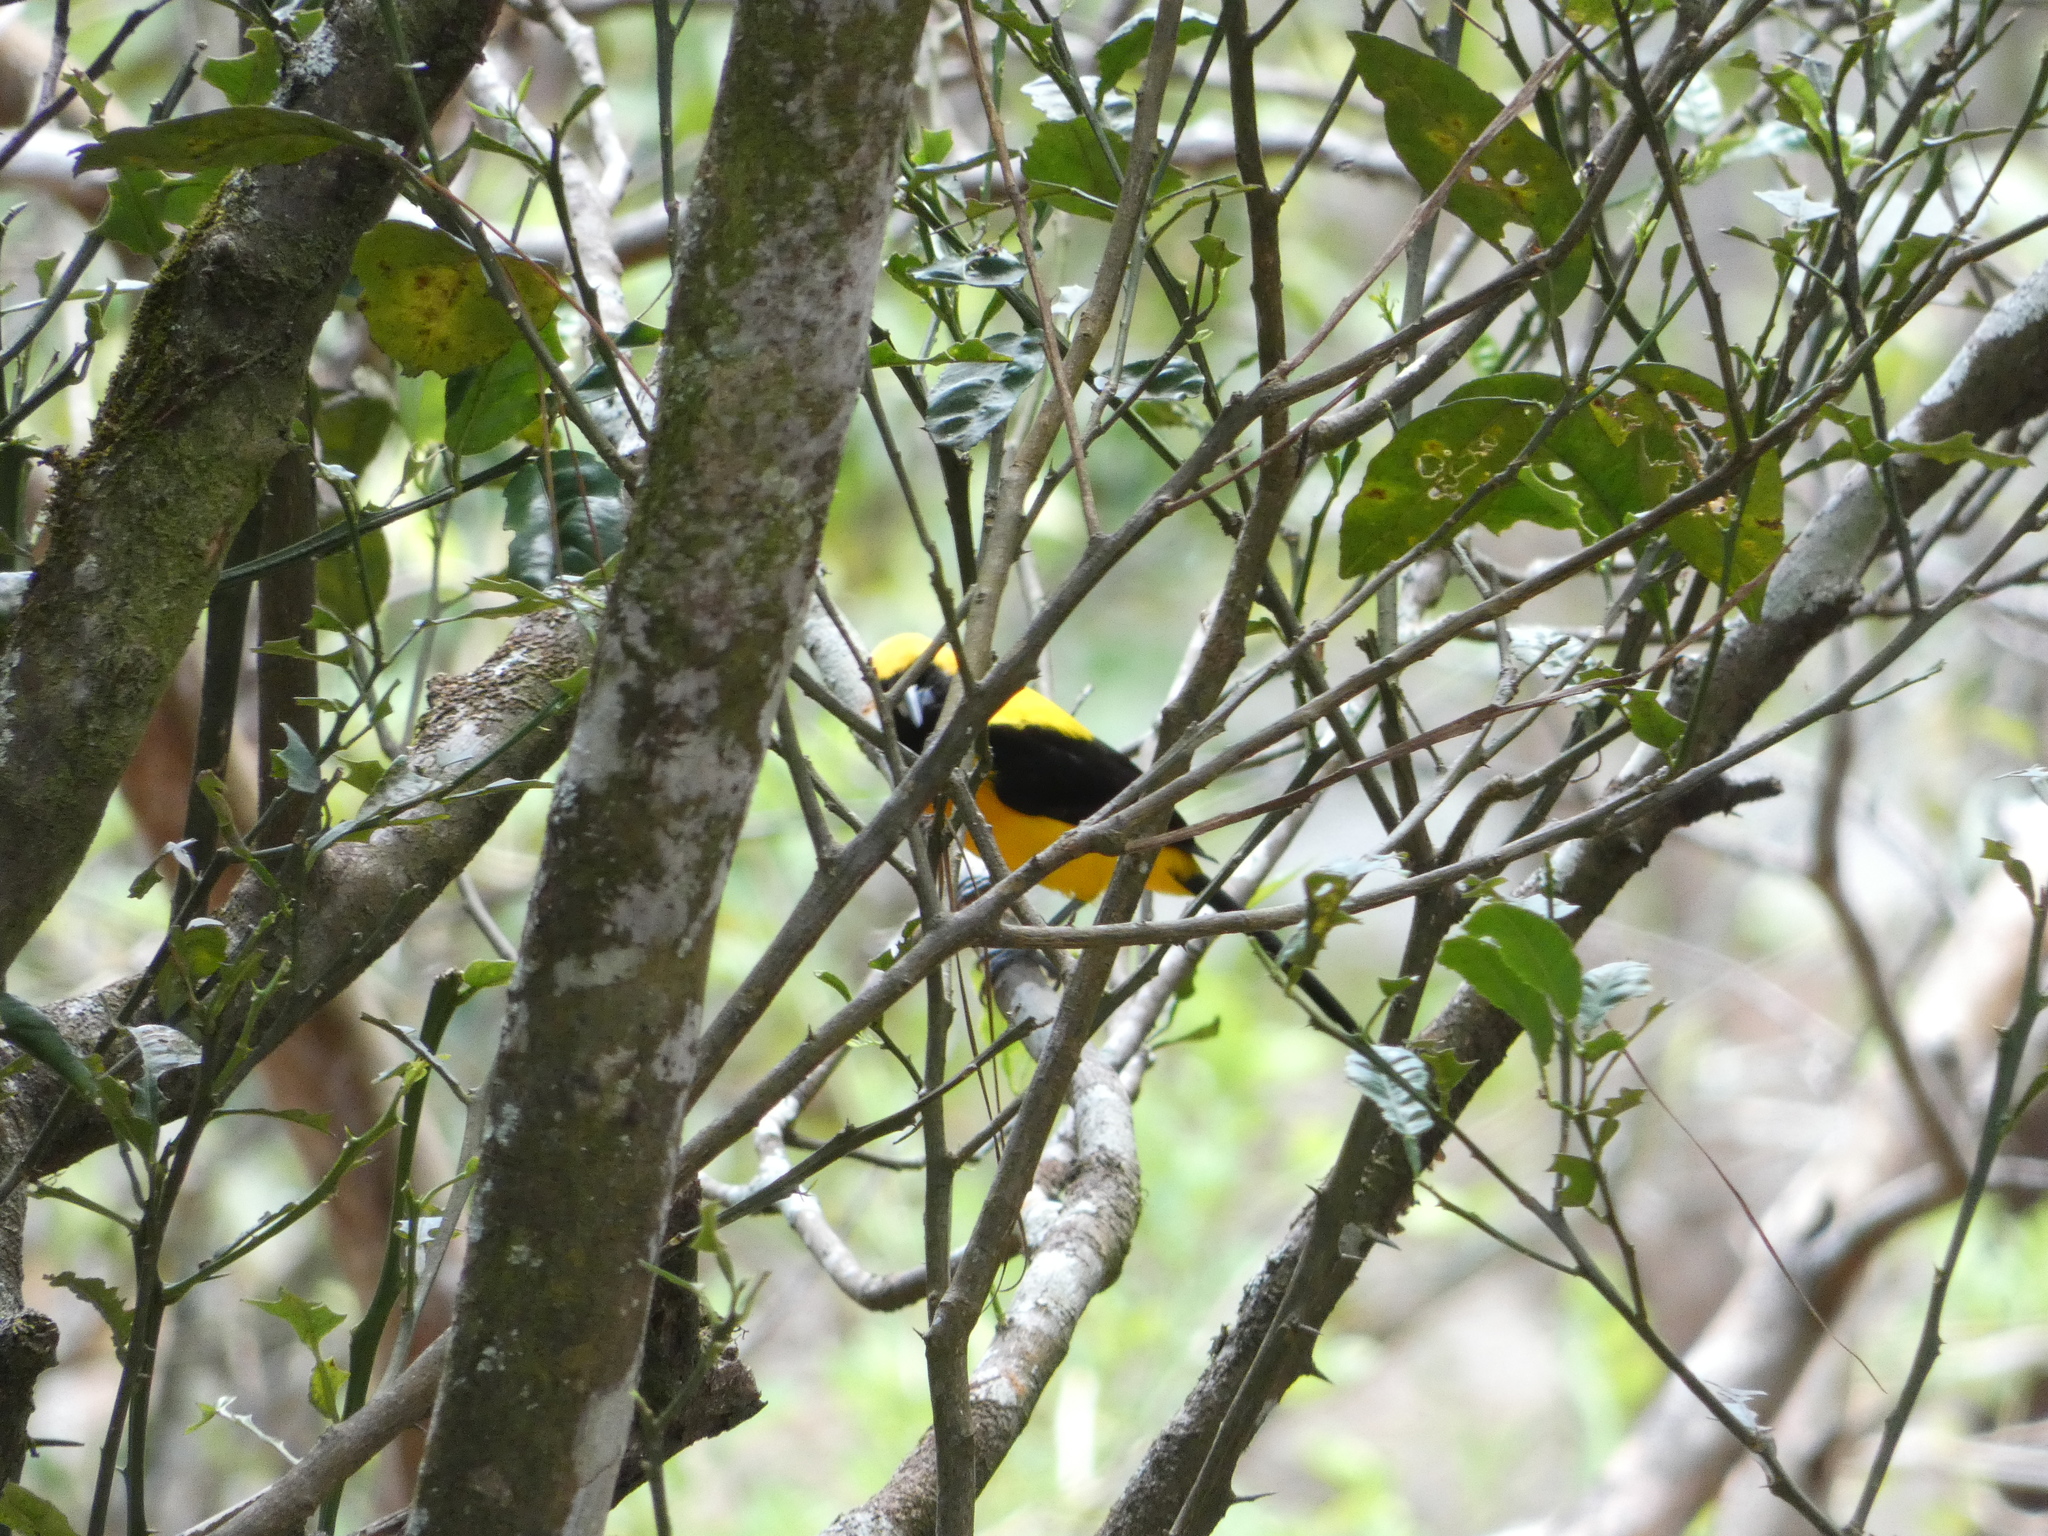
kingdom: Animalia
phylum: Chordata
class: Aves
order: Passeriformes
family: Icteridae
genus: Icterus
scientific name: Icterus chrysater
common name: Yellow-backed oriole
